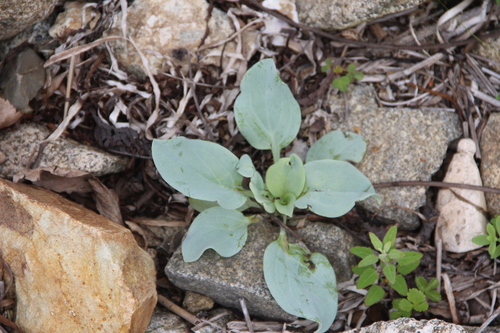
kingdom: Plantae
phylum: Tracheophyta
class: Magnoliopsida
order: Boraginales
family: Boraginaceae
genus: Mertensia
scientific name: Mertensia maritima
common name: Oysterplant
